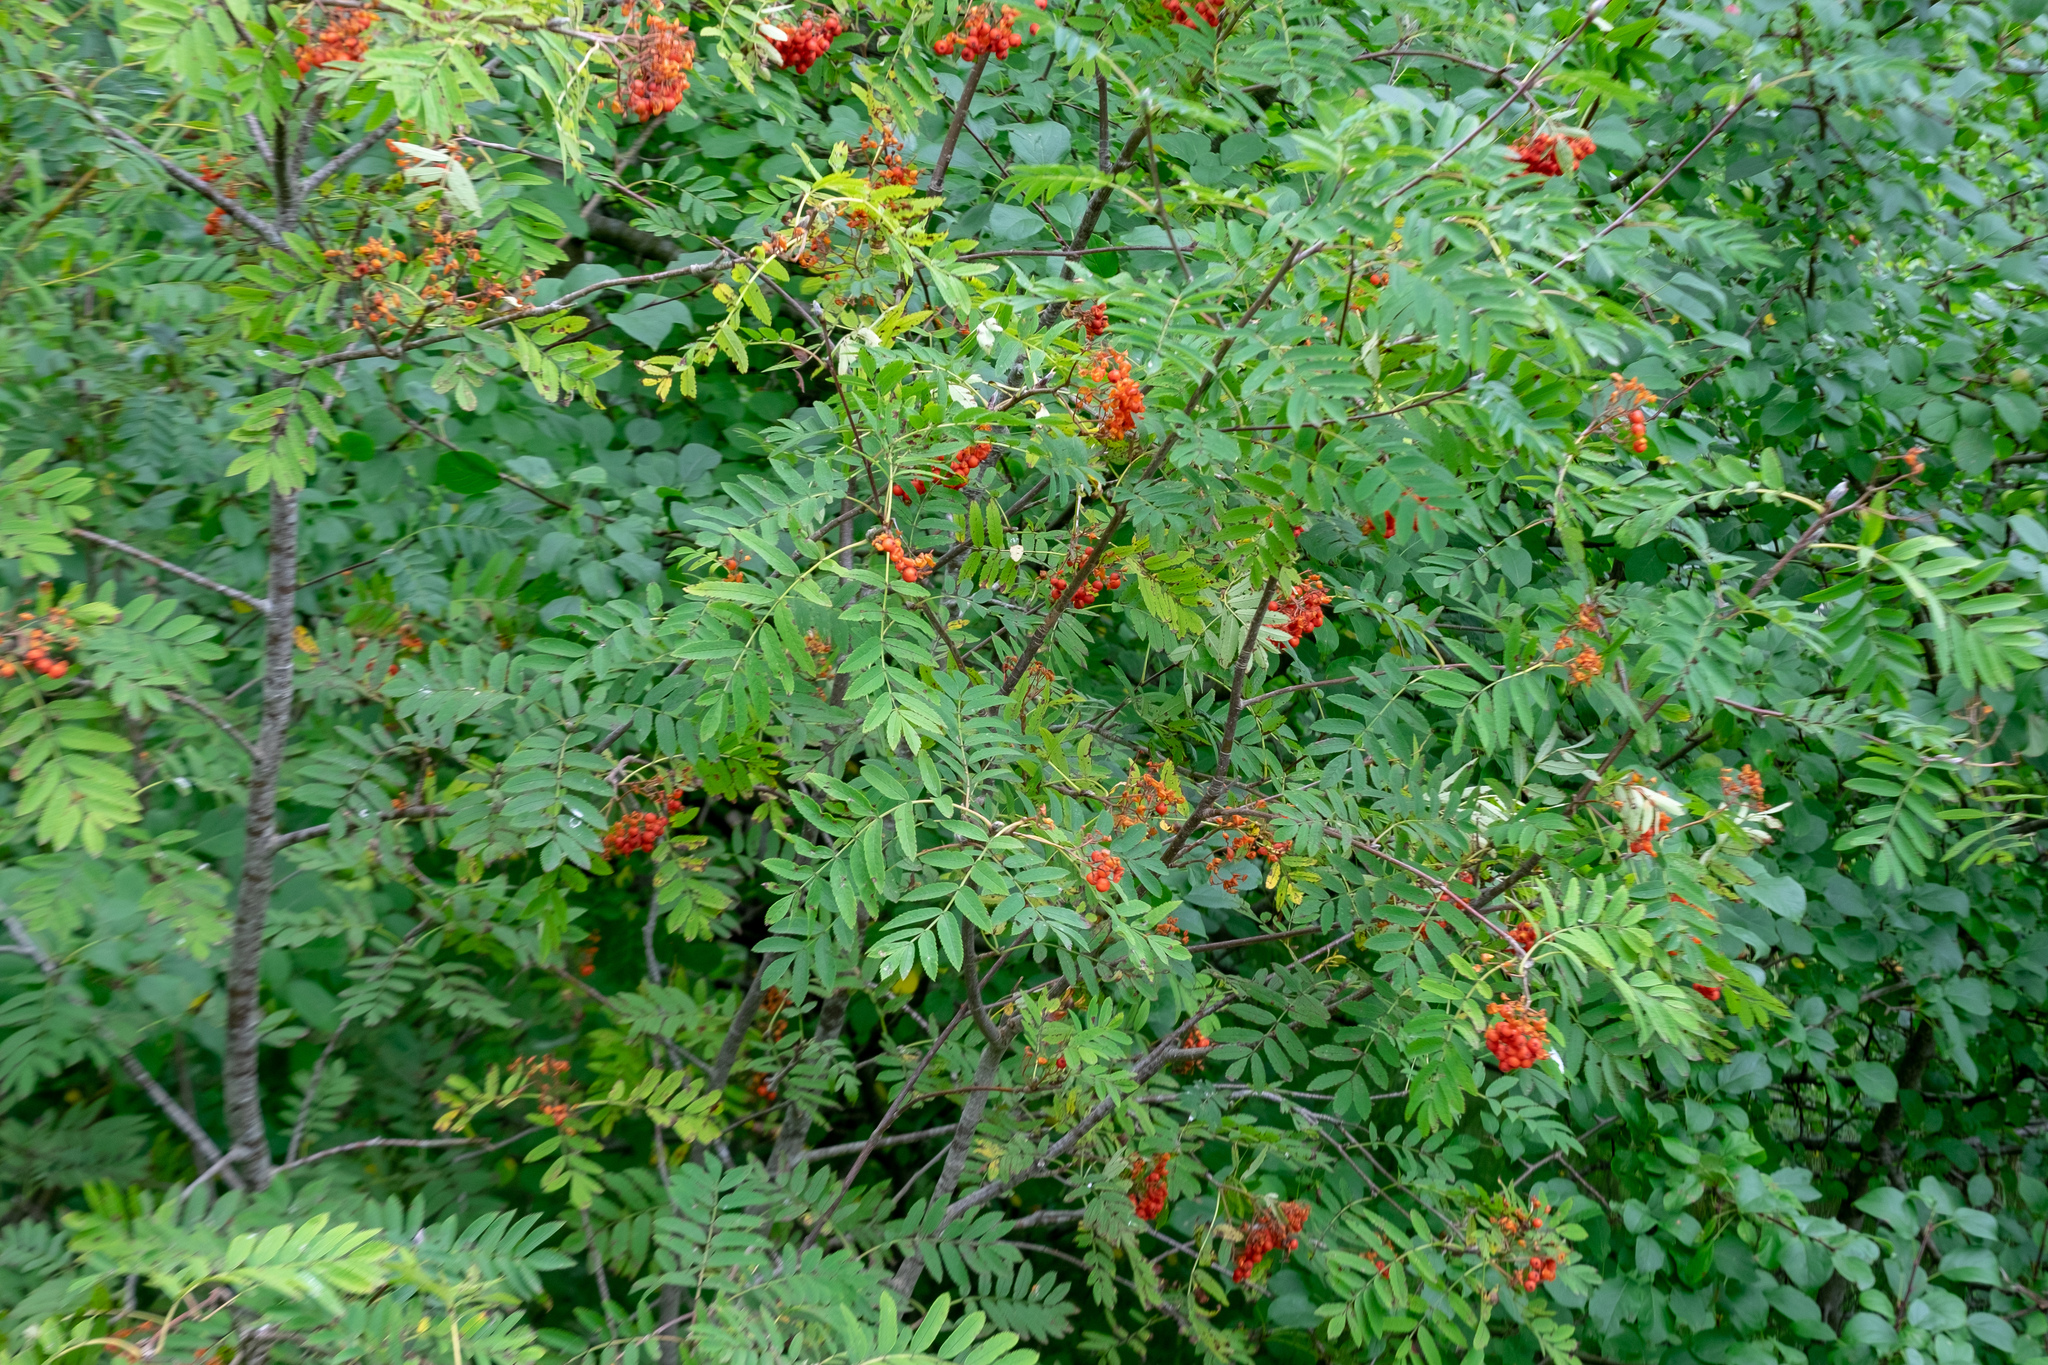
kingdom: Plantae
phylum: Tracheophyta
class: Magnoliopsida
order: Rosales
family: Rosaceae
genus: Sorbus
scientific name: Sorbus aucuparia
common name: Rowan
